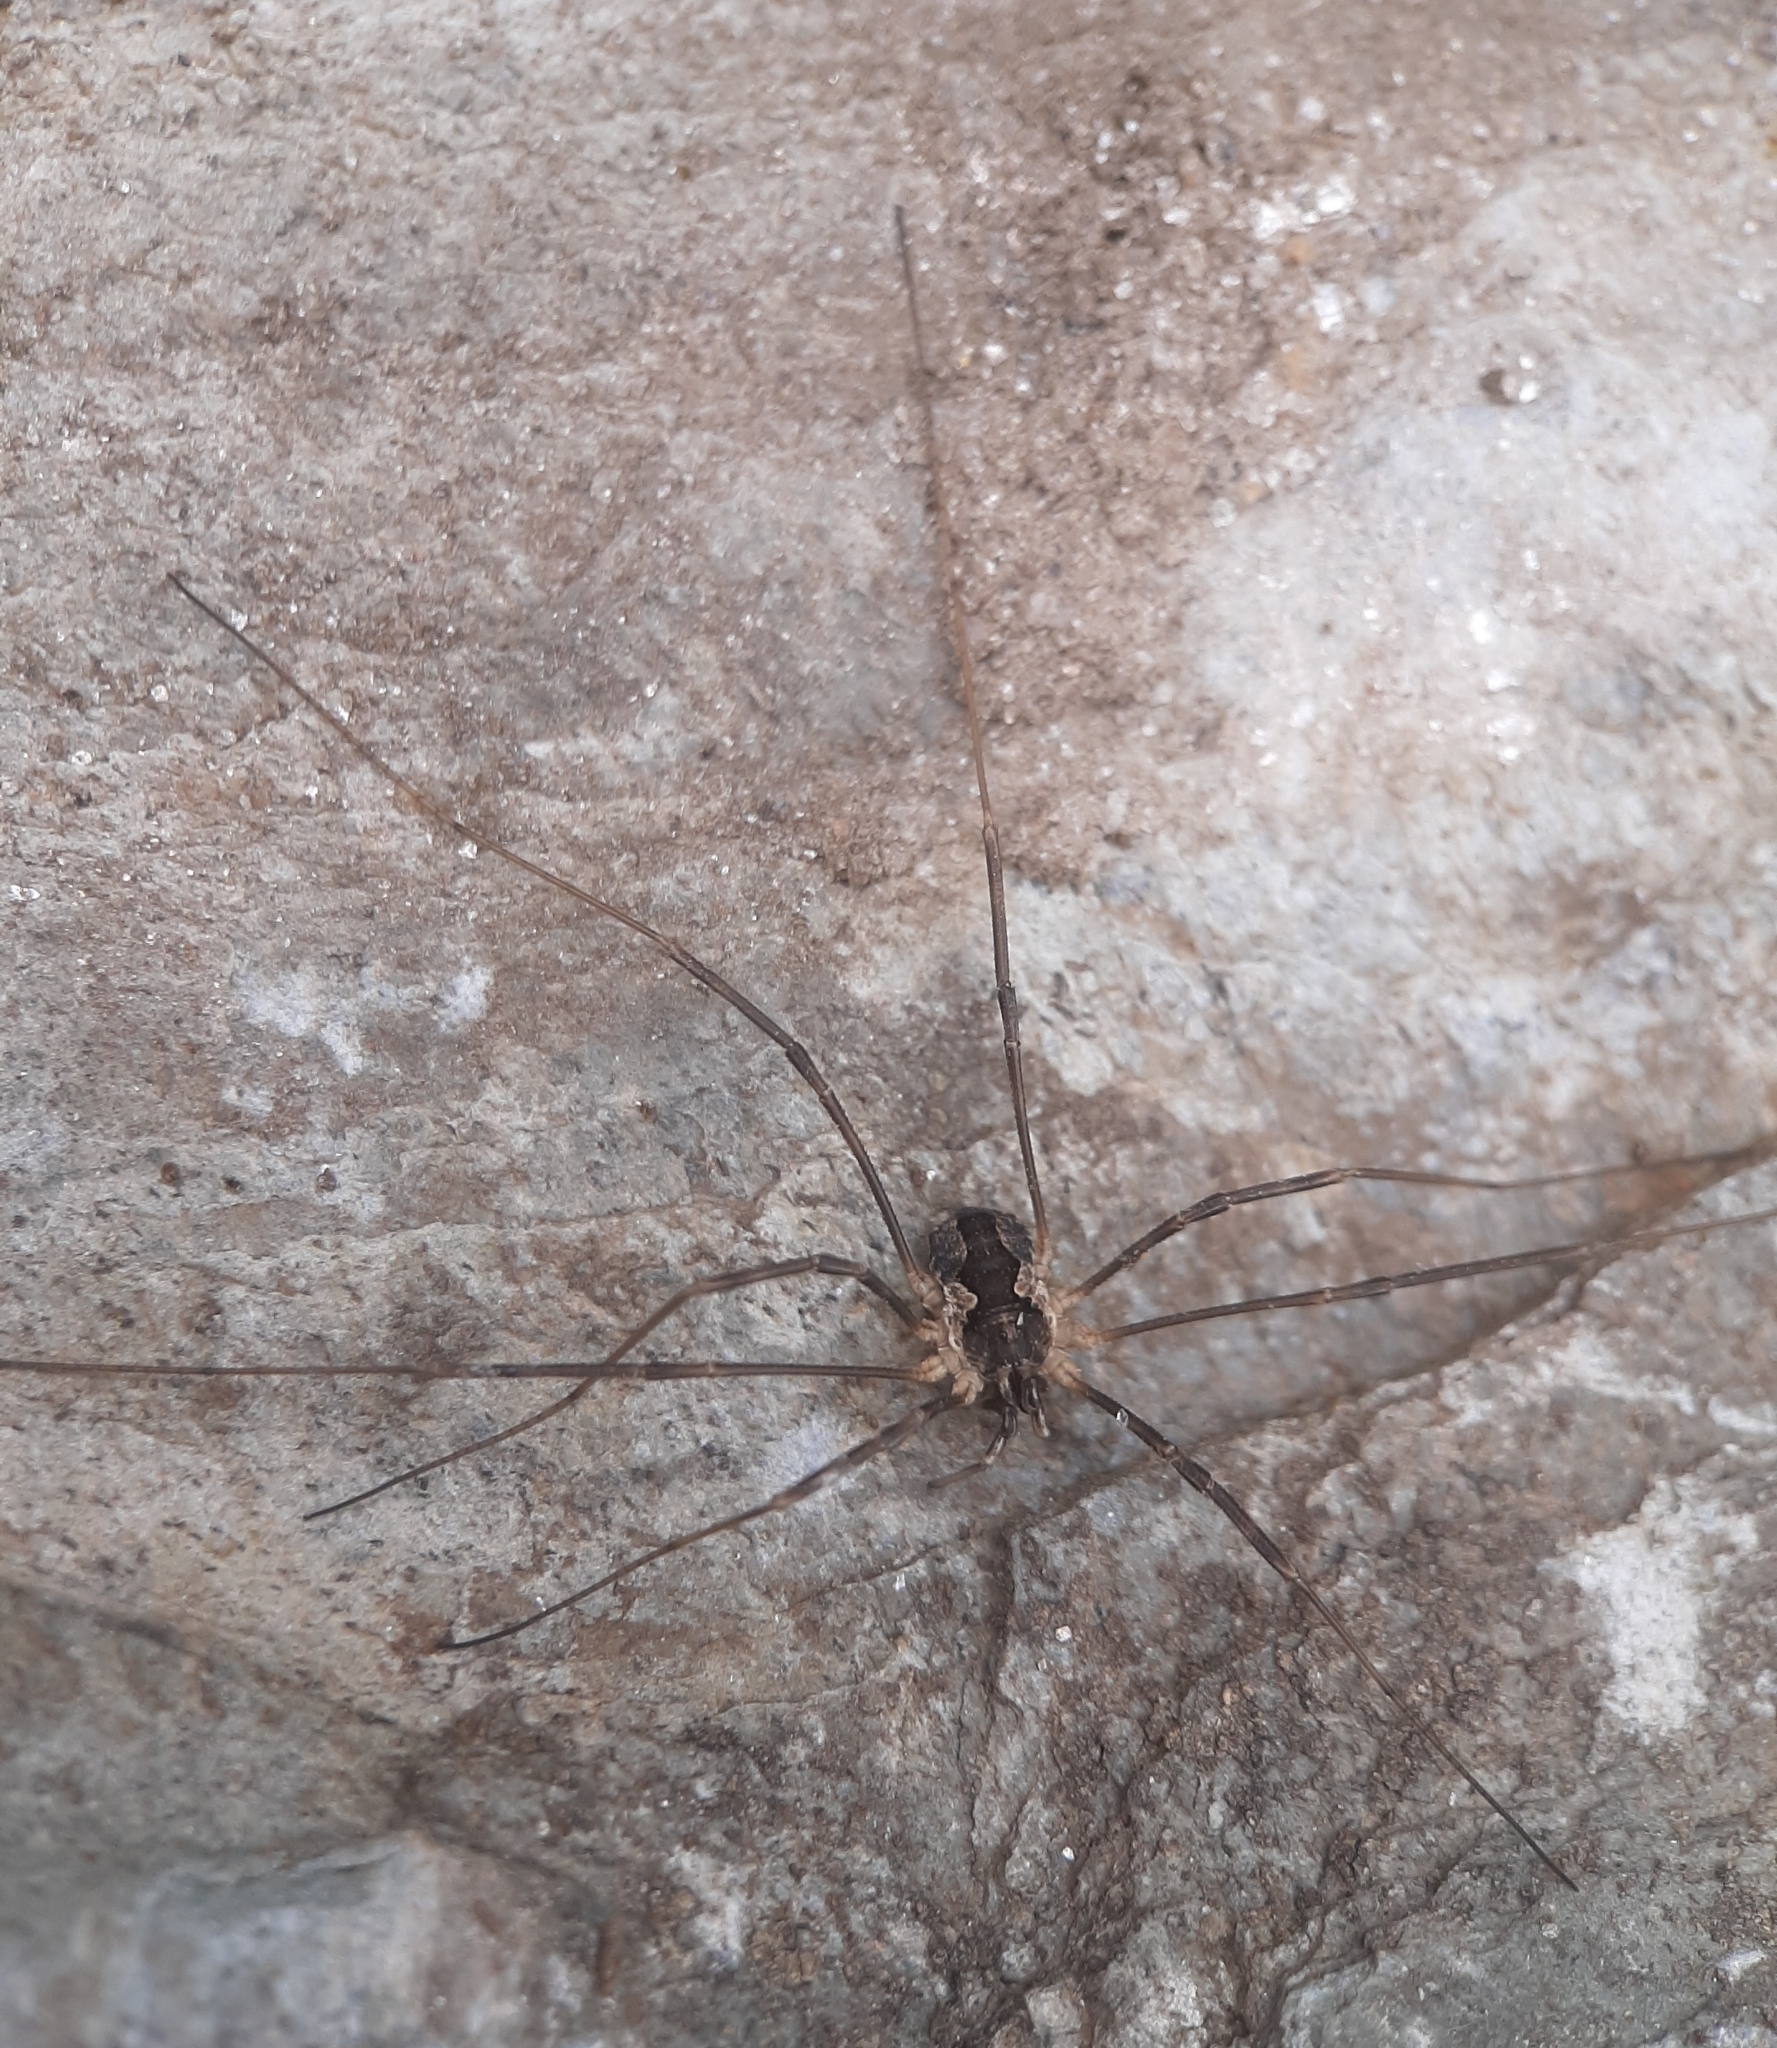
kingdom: Animalia
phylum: Arthropoda
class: Arachnida
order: Opiliones
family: Phalangiidae
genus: Mitopus
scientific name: Mitopus morio
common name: Saddleback harvestman
